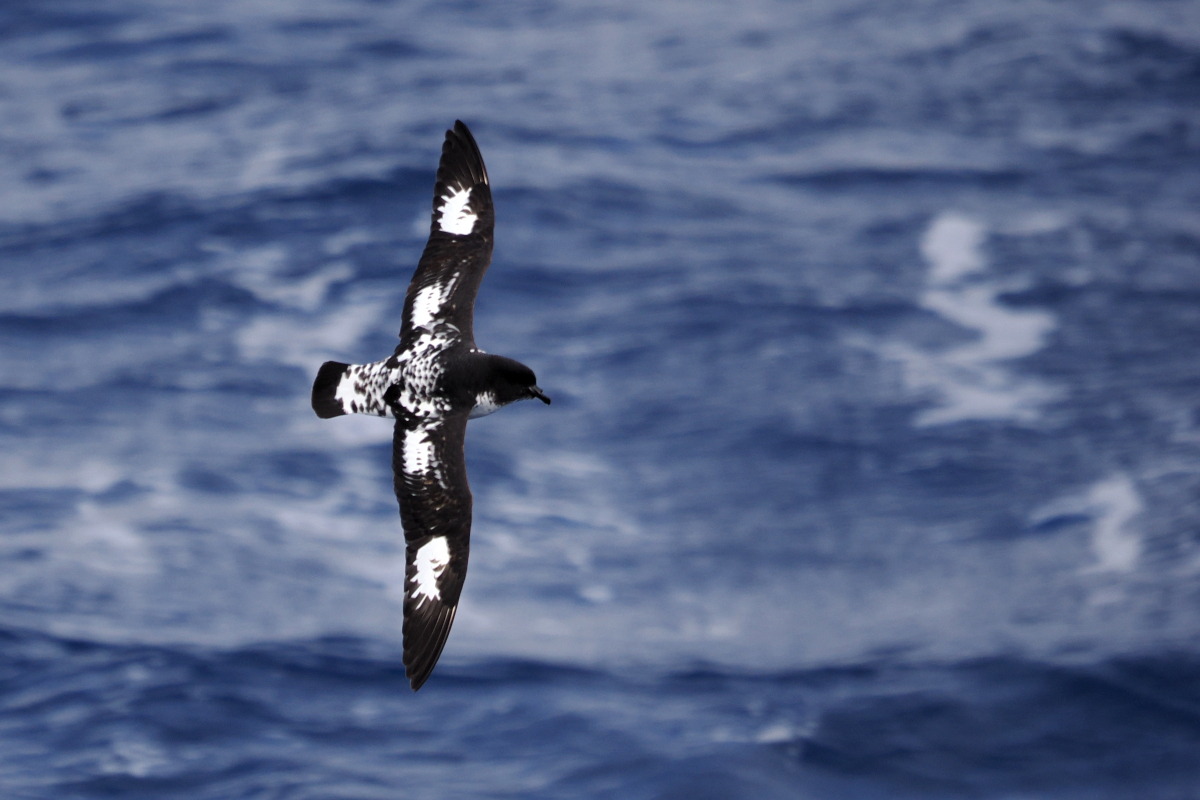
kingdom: Animalia
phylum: Chordata
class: Aves
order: Procellariiformes
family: Procellariidae
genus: Daption
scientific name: Daption capense
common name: Cape petrel
